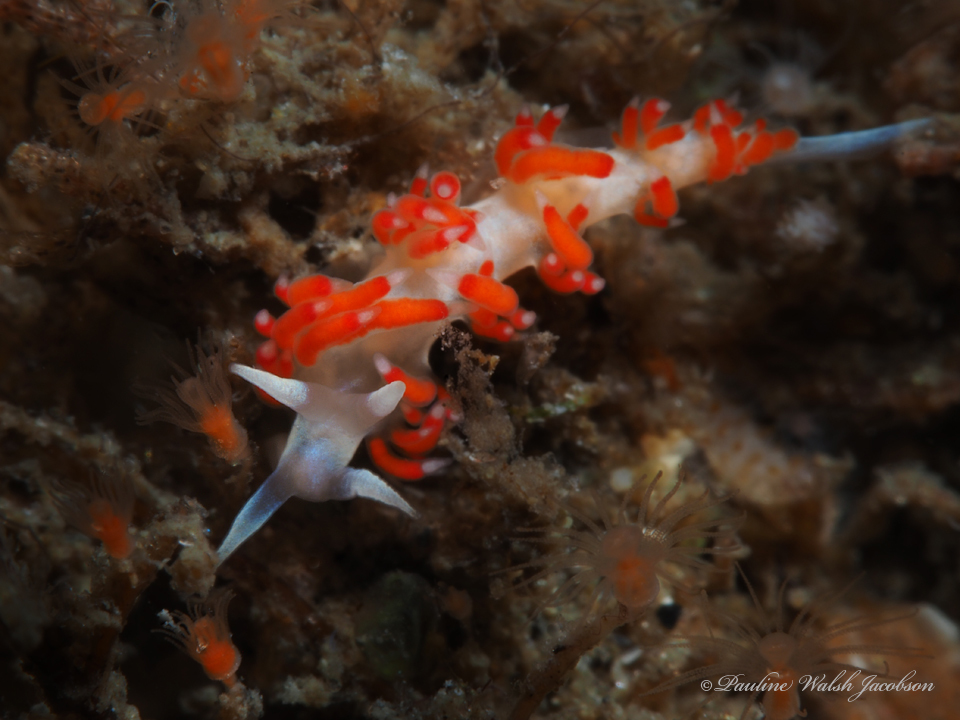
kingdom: Animalia
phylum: Mollusca
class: Gastropoda
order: Nudibranchia
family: Flabellinidae
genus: Flabellina
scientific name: Flabellina dushia
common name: Dushia flabellina
